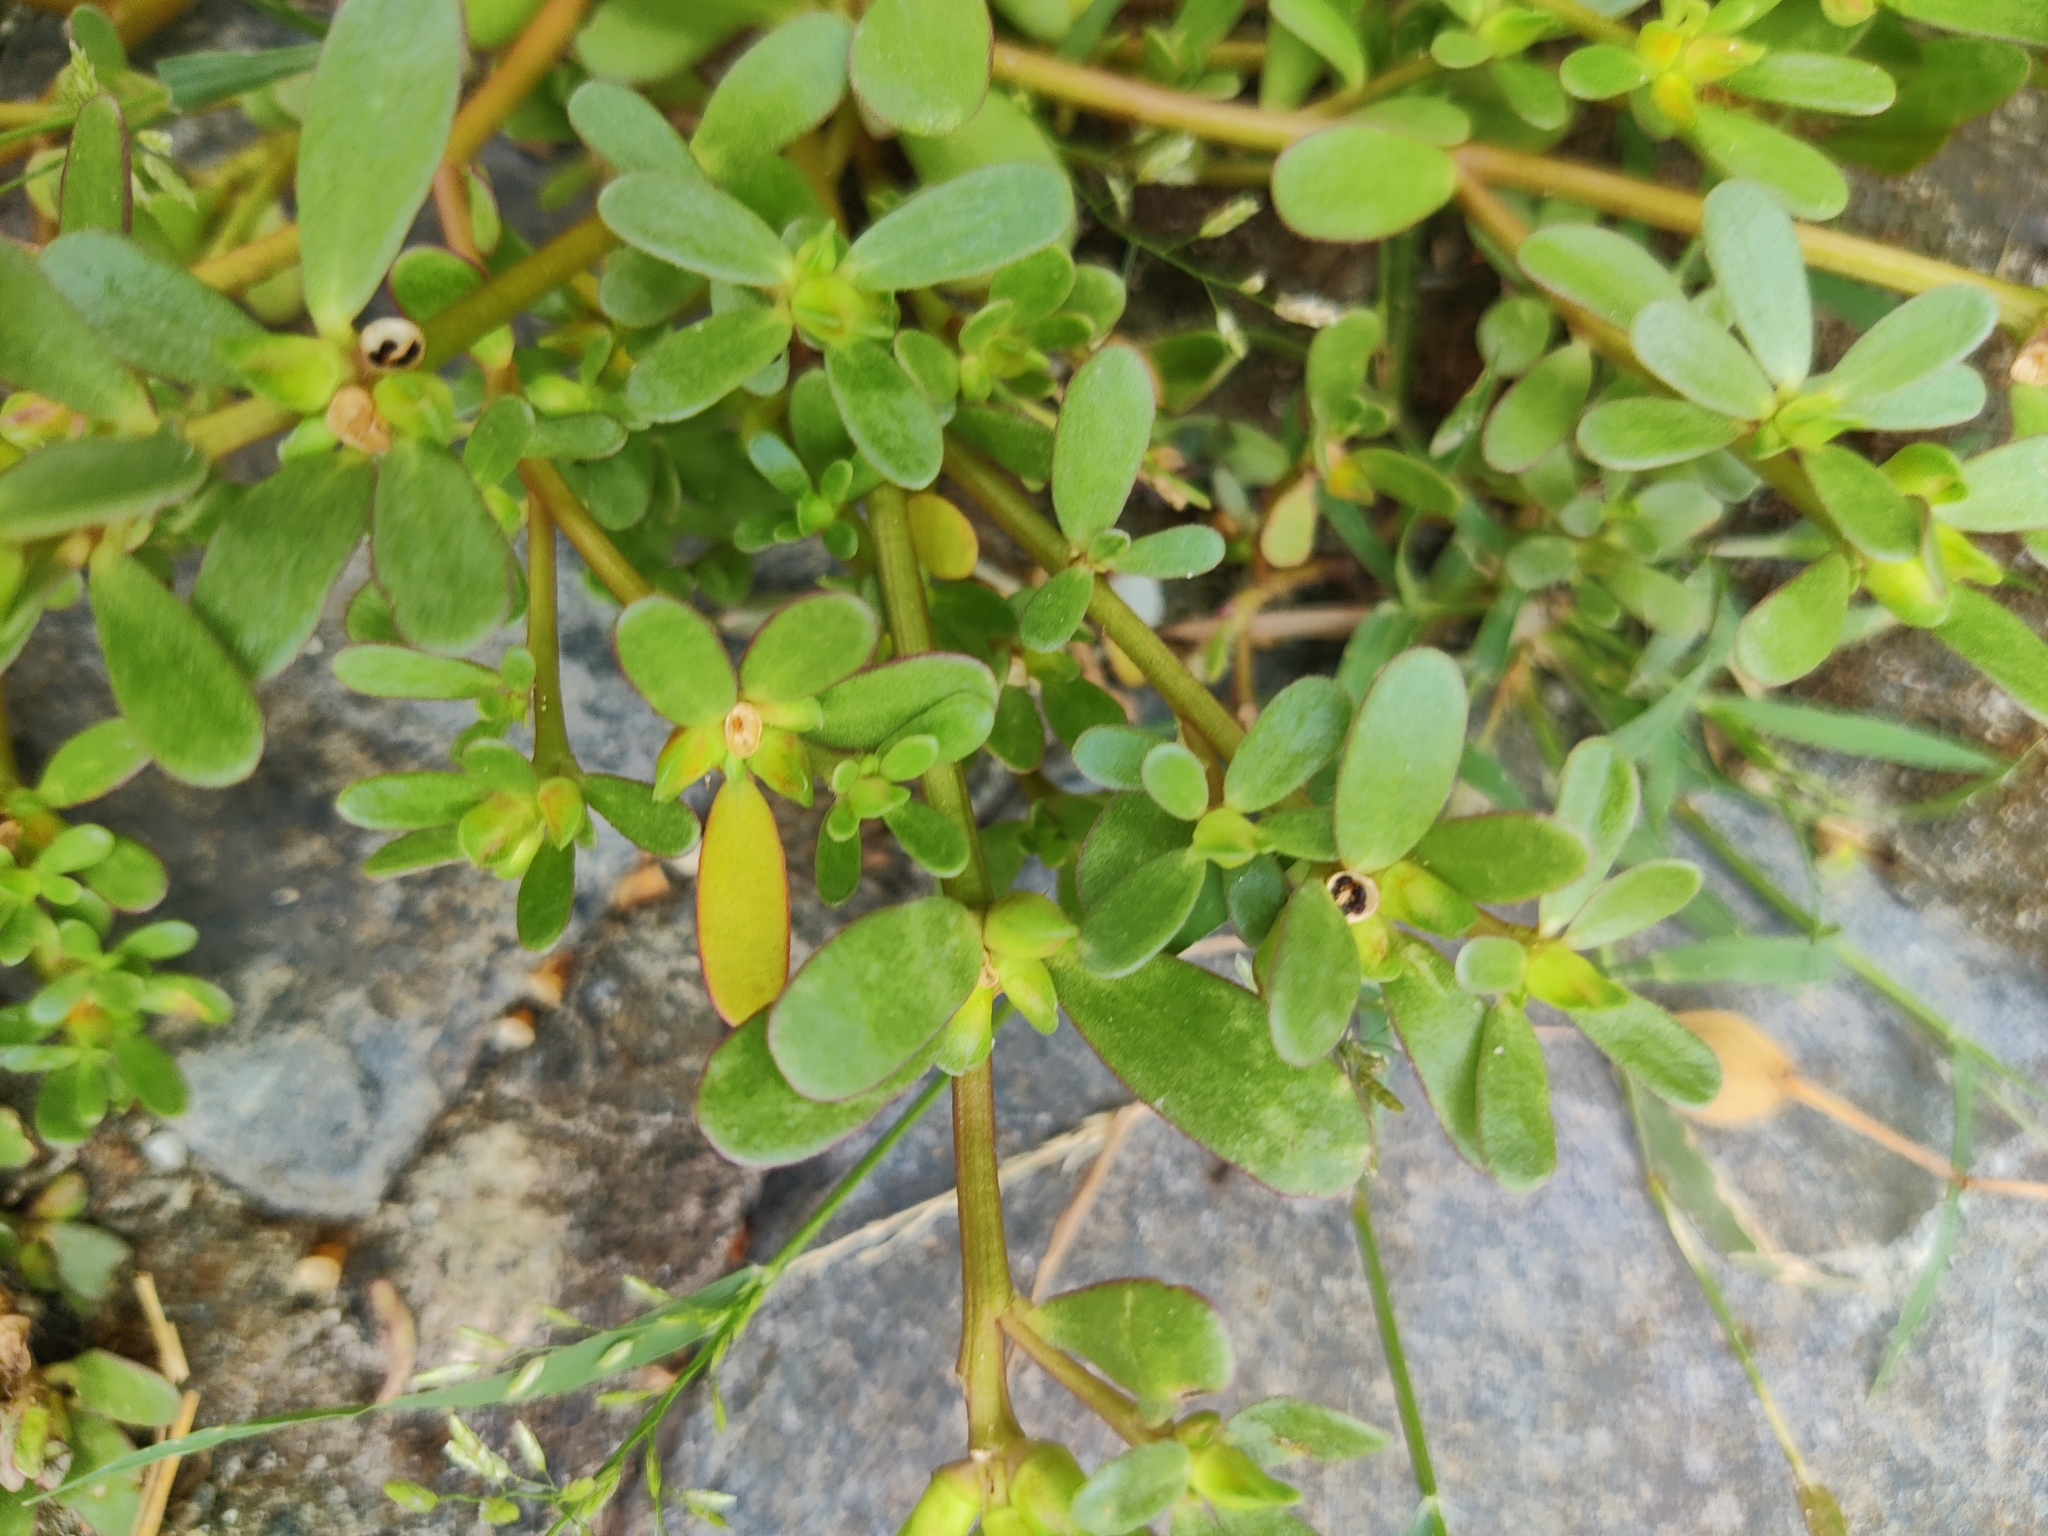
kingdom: Plantae
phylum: Tracheophyta
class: Magnoliopsida
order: Caryophyllales
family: Portulacaceae
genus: Portulaca
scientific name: Portulaca oleracea
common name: Common purslane
